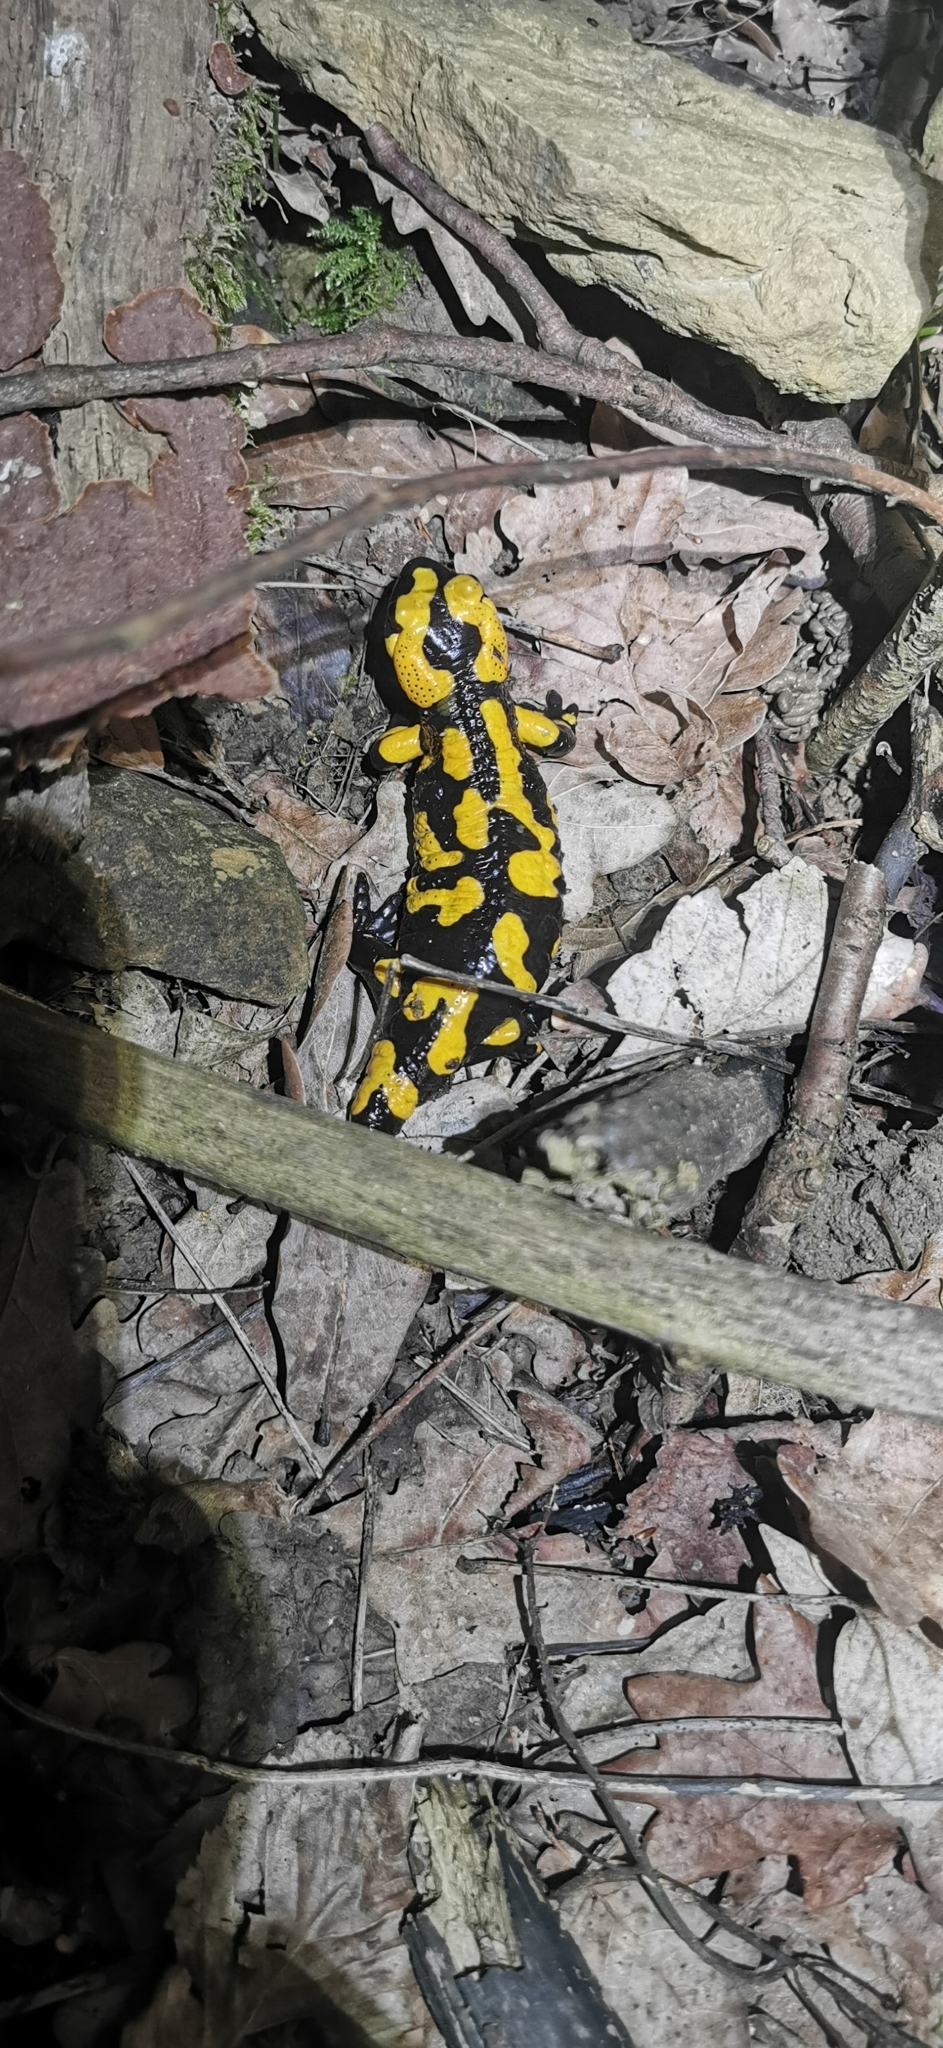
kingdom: Animalia
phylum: Chordata
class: Amphibia
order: Caudata
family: Salamandridae
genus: Salamandra
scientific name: Salamandra salamandra
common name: Fire salamander
